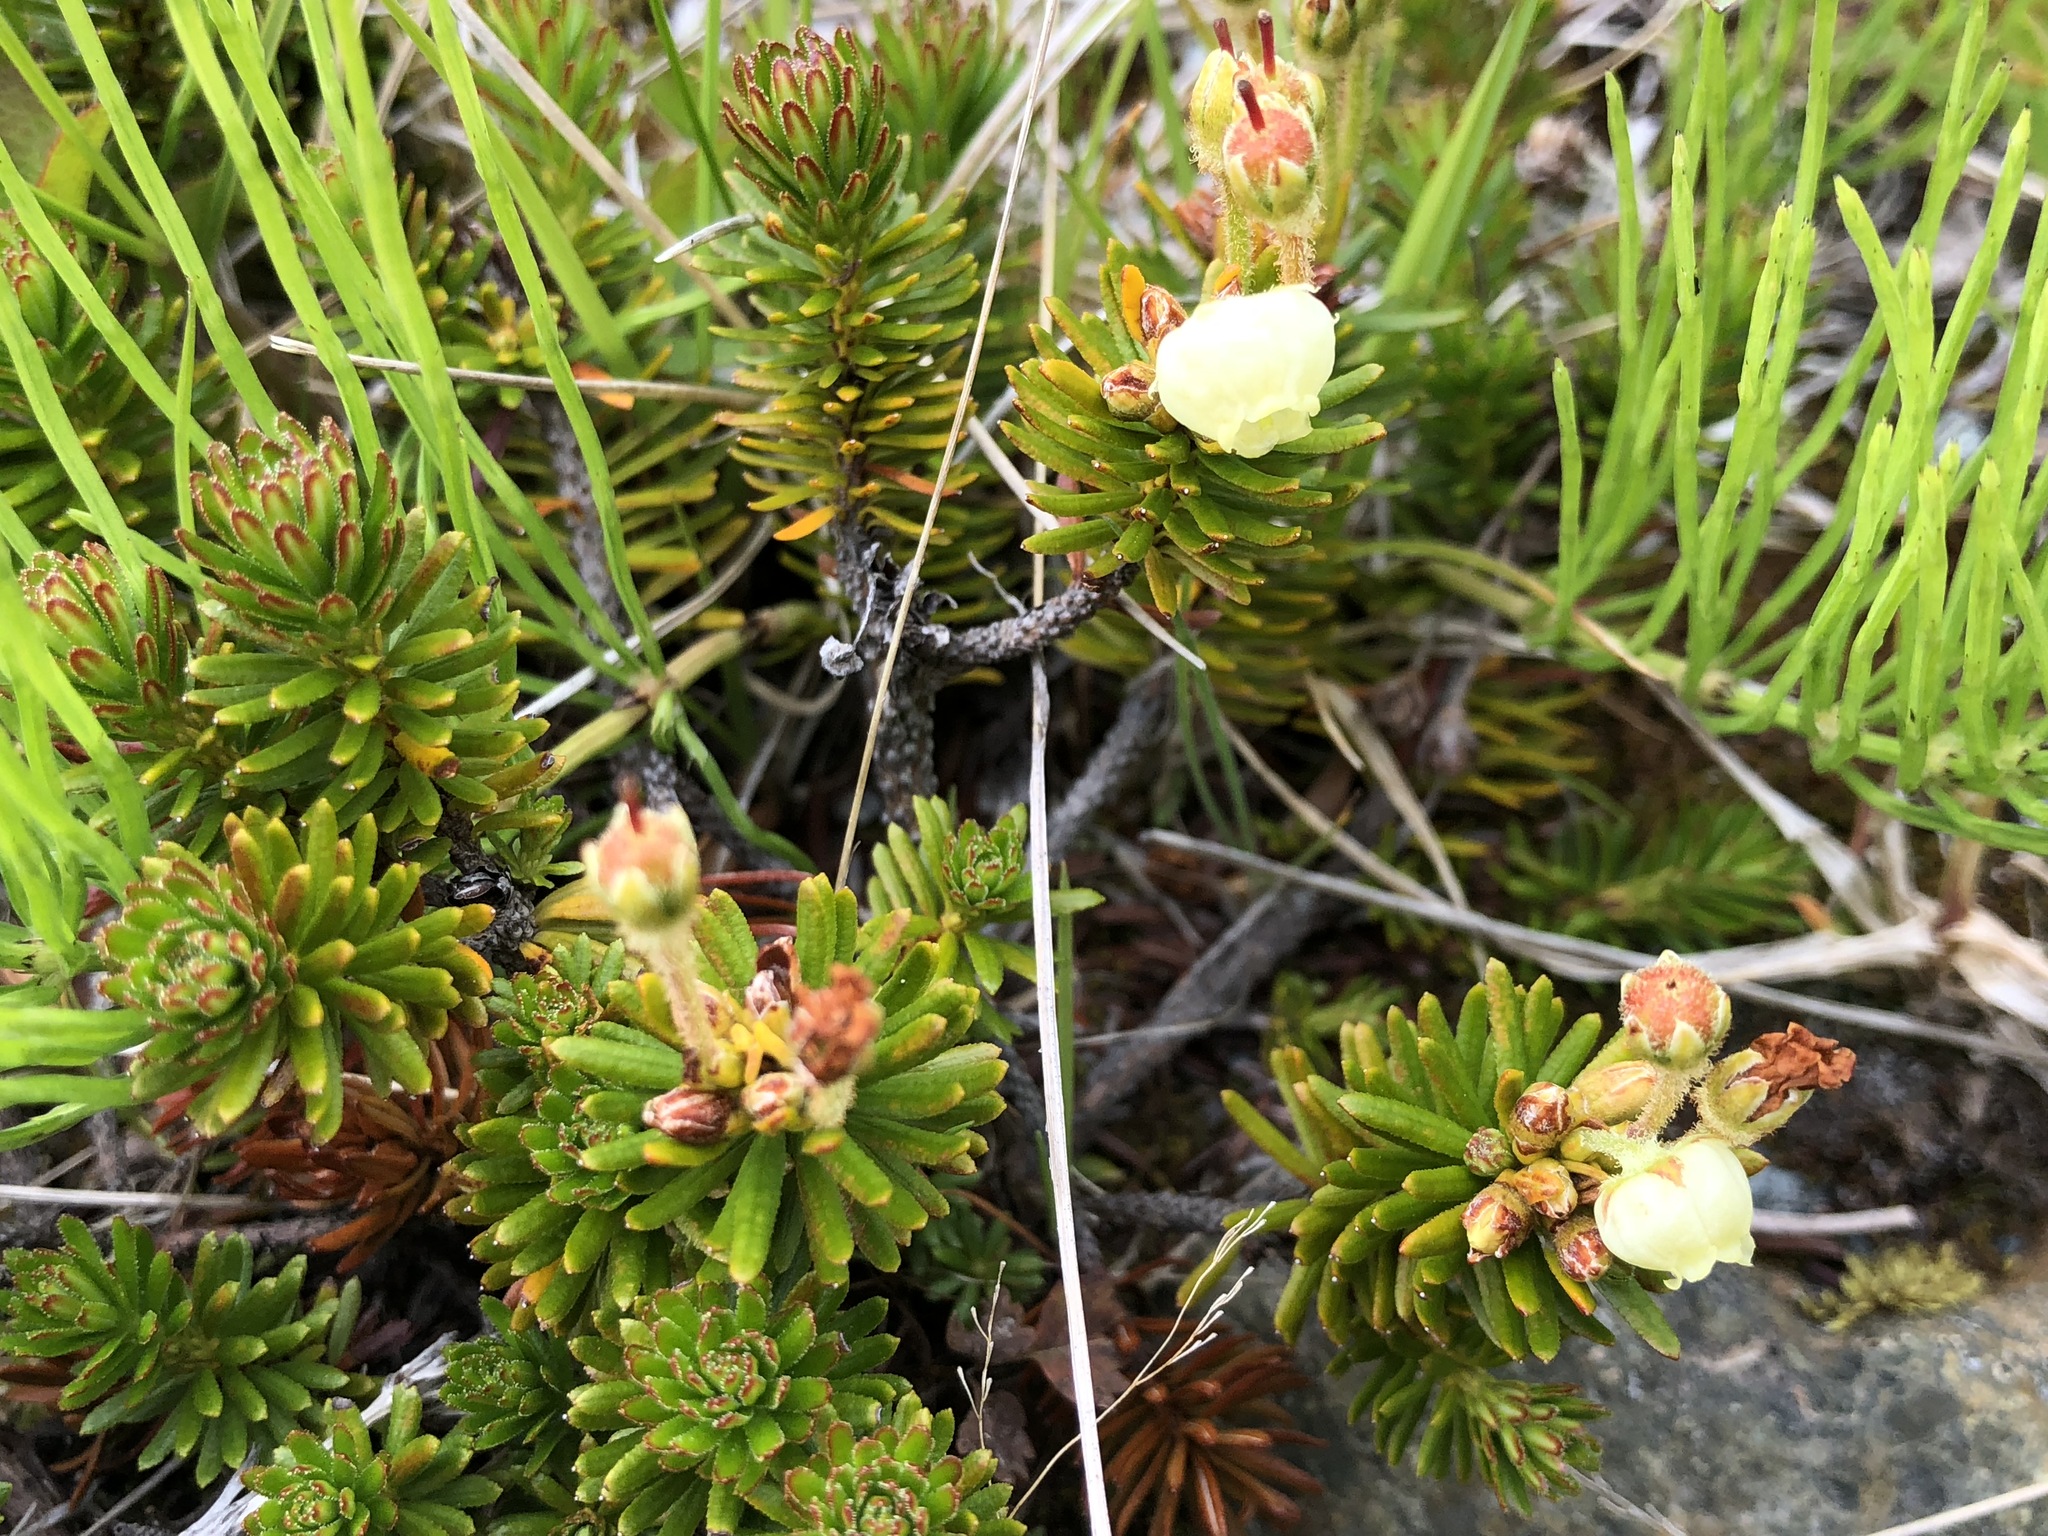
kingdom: Plantae
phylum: Tracheophyta
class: Magnoliopsida
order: Ericales
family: Ericaceae
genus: Phyllodoce
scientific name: Phyllodoce aleutica
